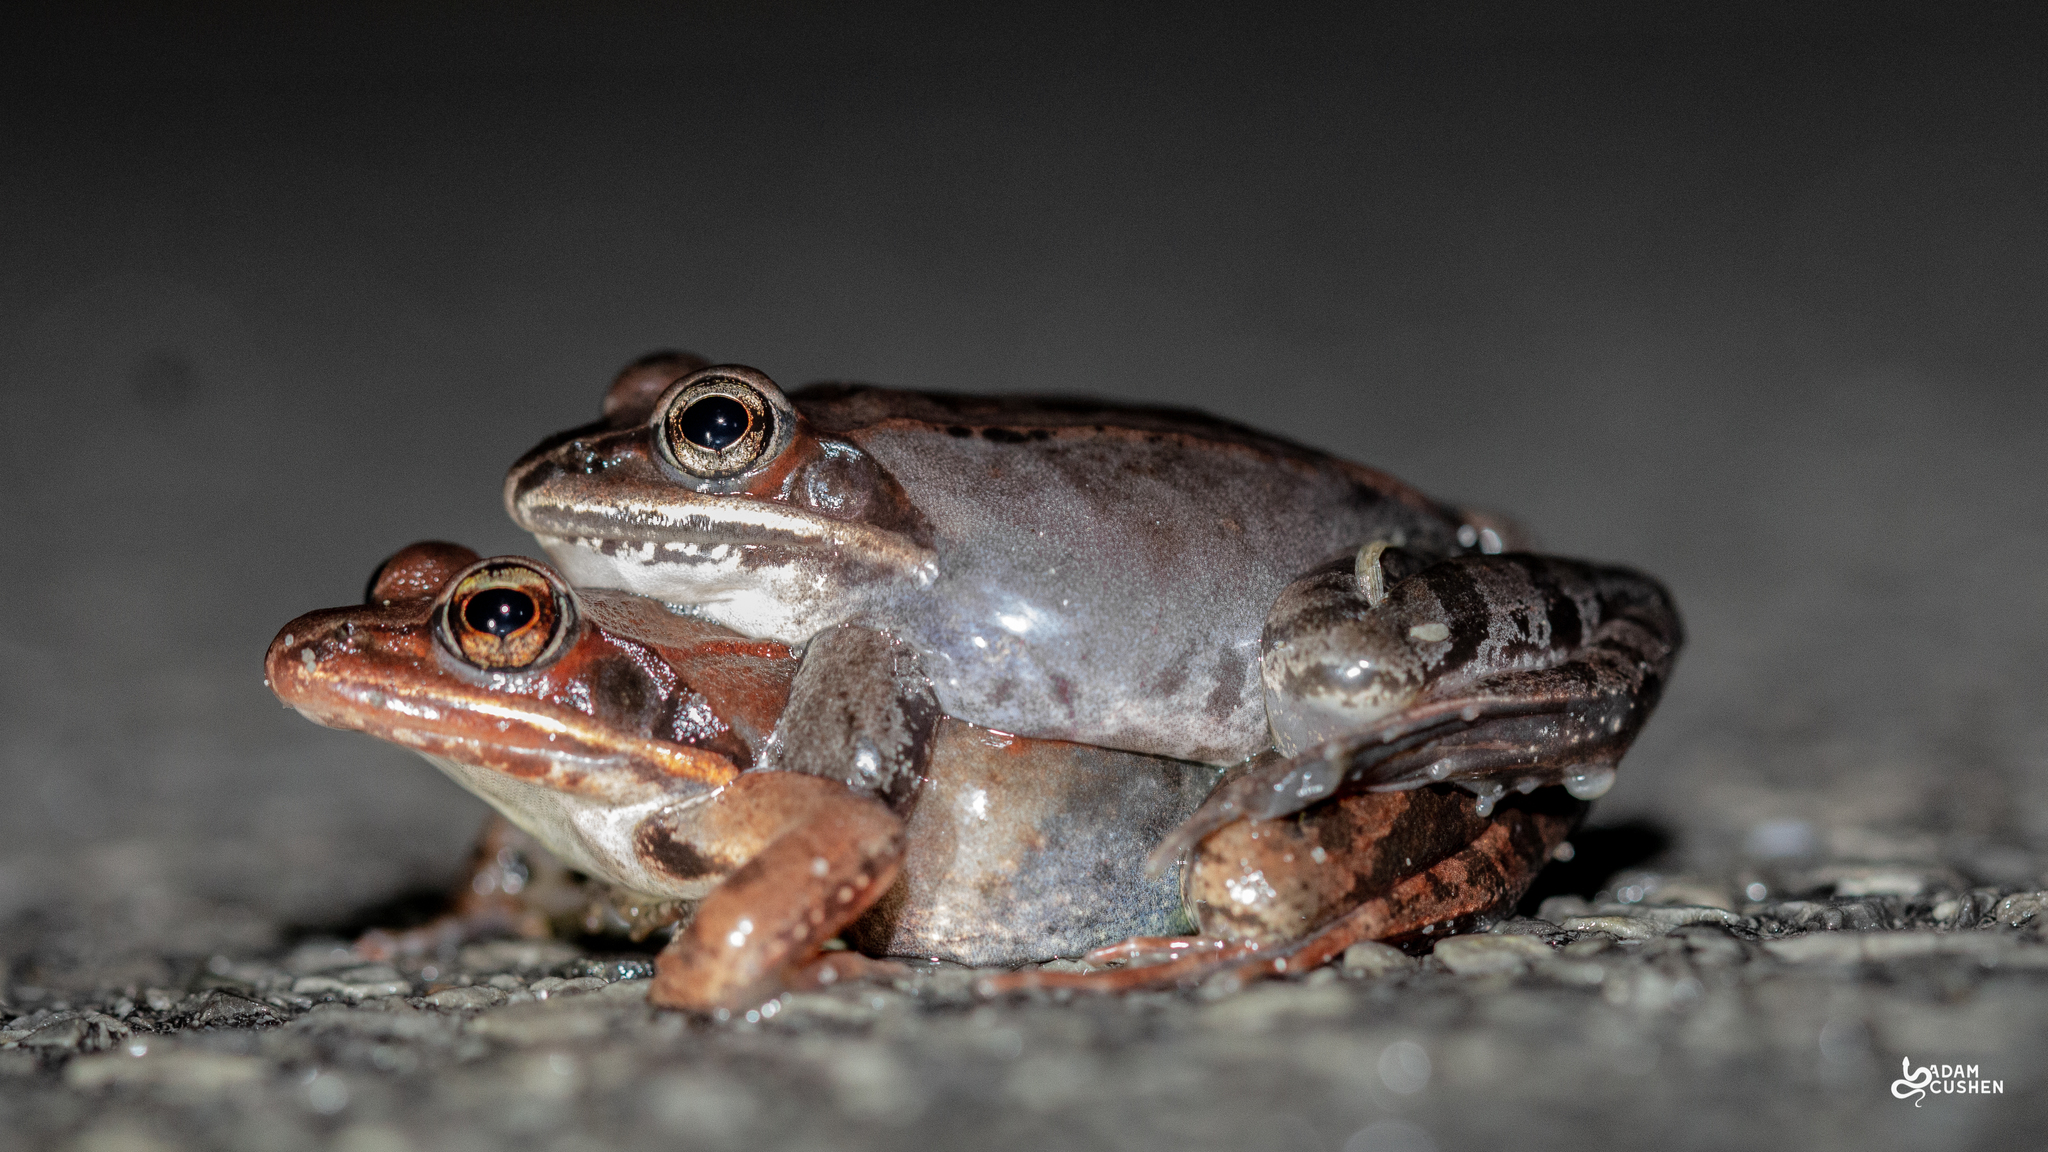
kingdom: Animalia
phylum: Chordata
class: Amphibia
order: Anura
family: Ranidae
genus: Lithobates
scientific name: Lithobates sylvaticus
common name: Wood frog
